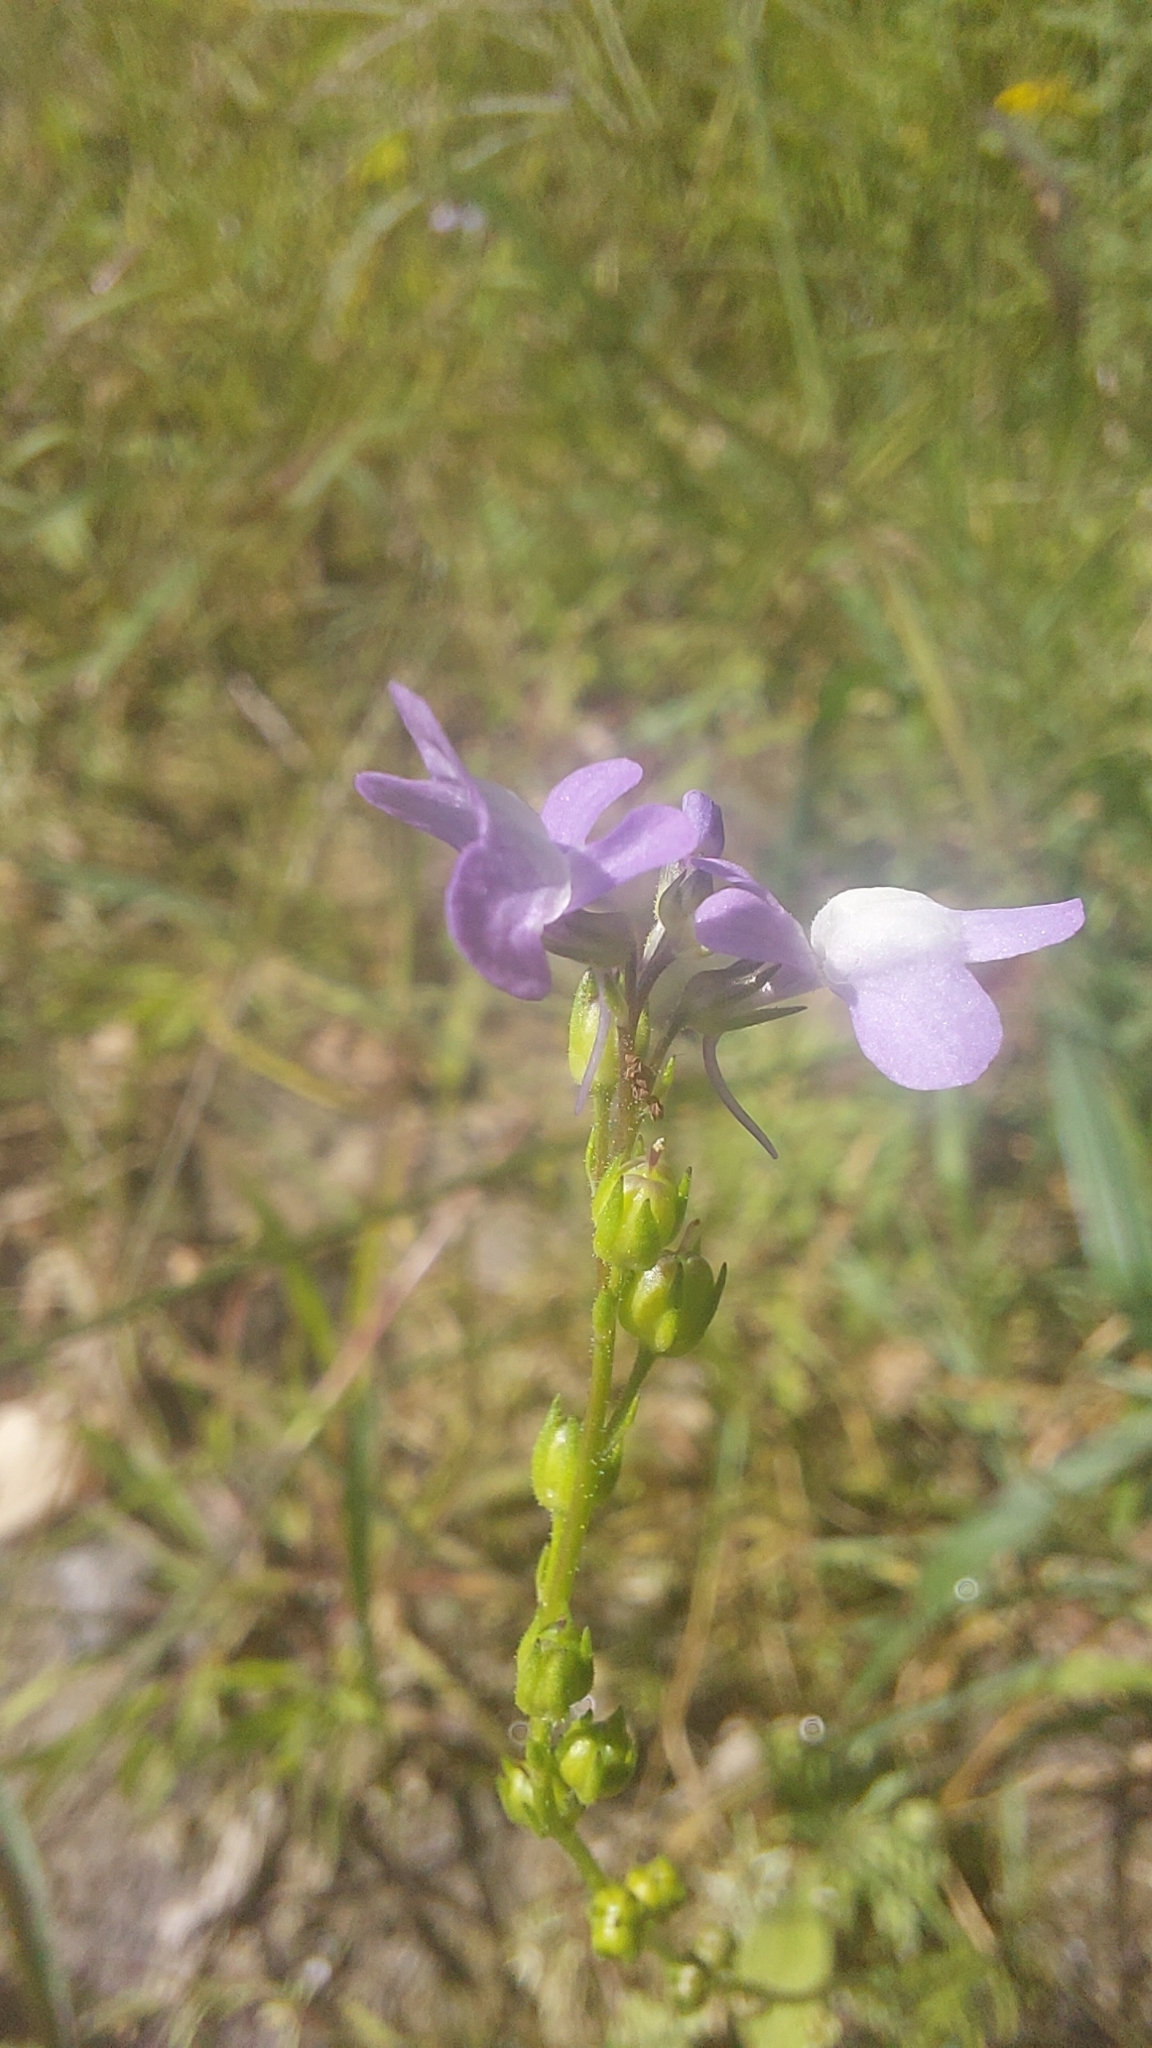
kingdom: Plantae
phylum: Tracheophyta
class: Magnoliopsida
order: Lamiales
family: Plantaginaceae
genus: Nuttallanthus
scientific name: Nuttallanthus canadensis
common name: Blue toadflax
